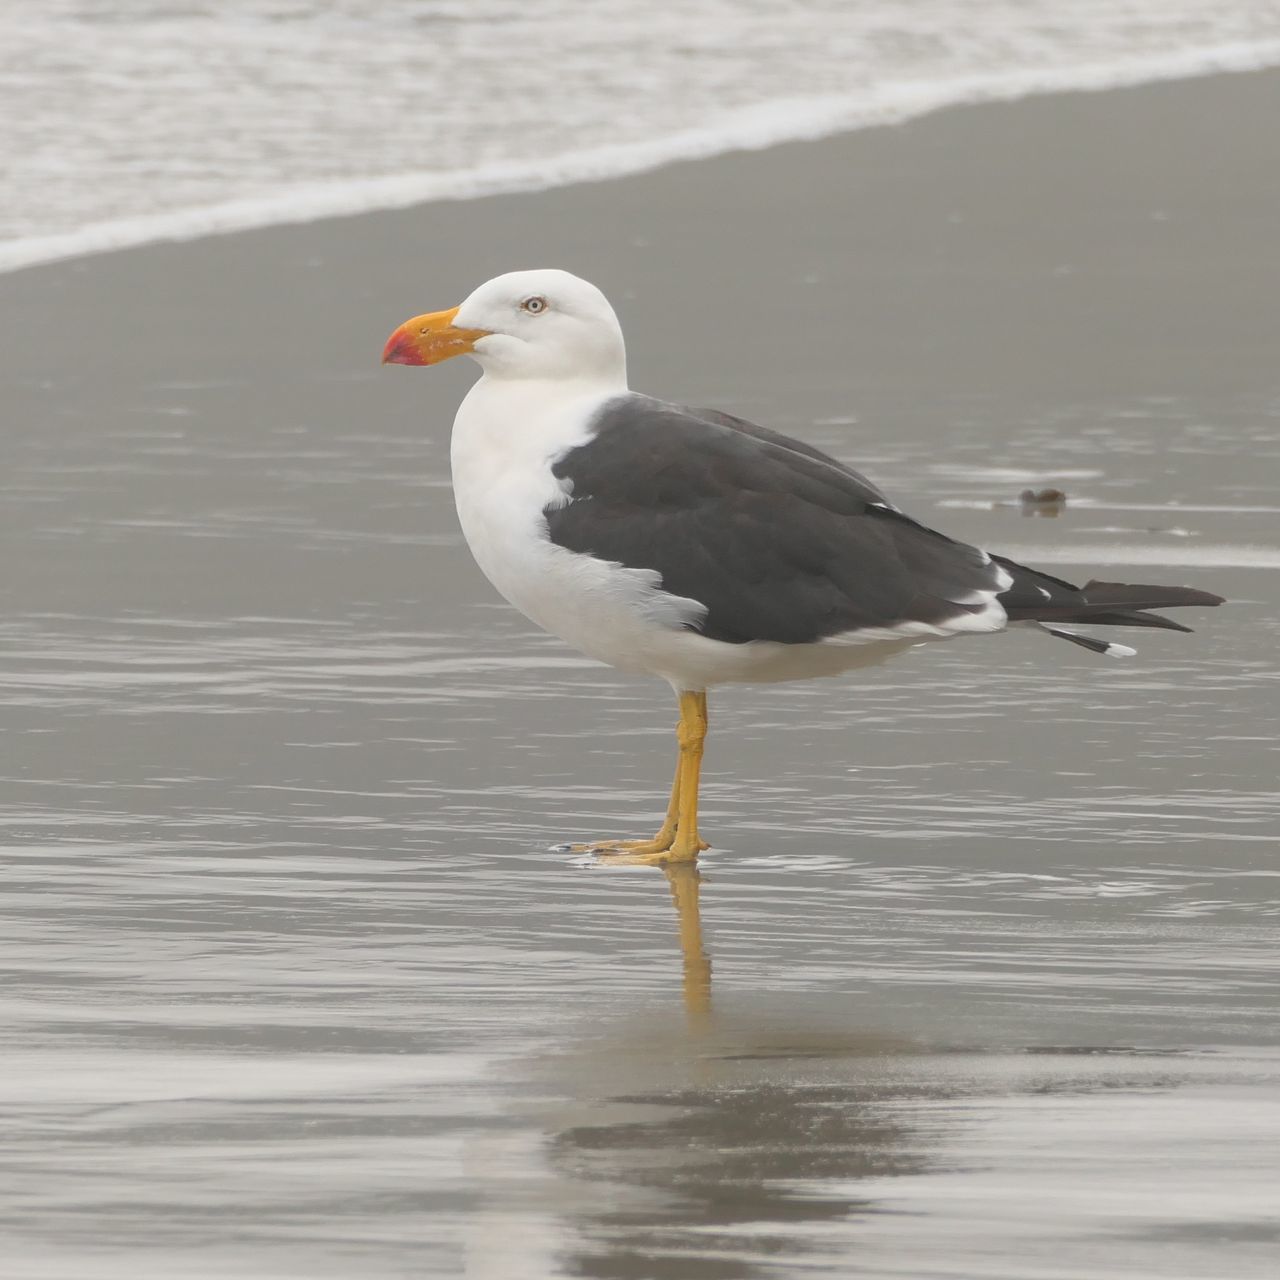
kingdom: Animalia
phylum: Chordata
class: Aves
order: Charadriiformes
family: Laridae
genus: Larus
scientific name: Larus pacificus
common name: Pacific gull
